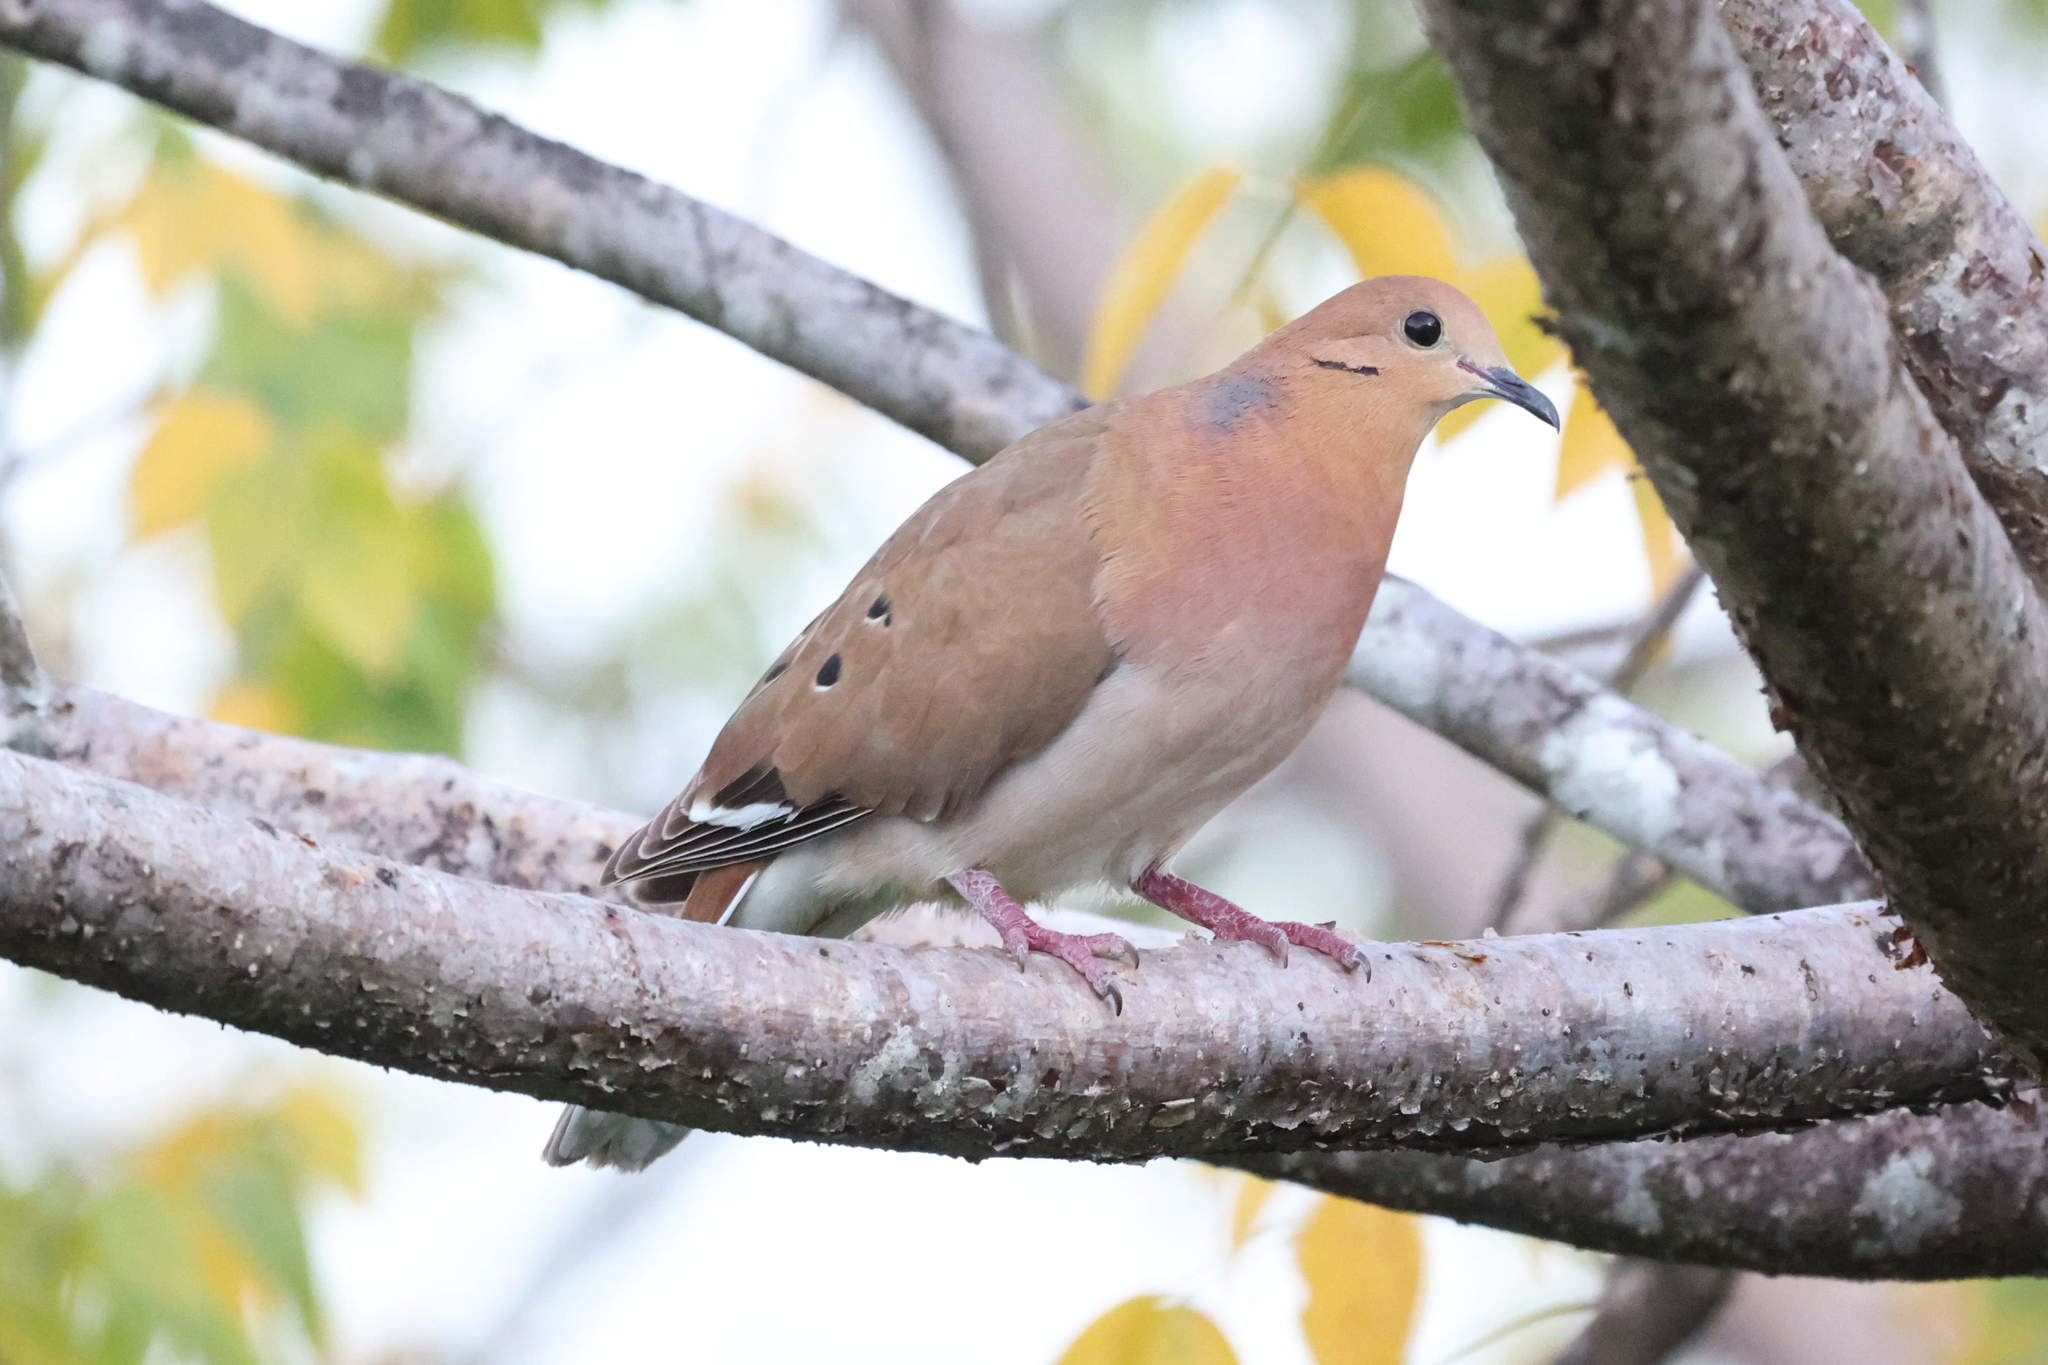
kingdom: Animalia
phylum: Chordata
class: Aves
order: Columbiformes
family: Columbidae
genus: Zenaida
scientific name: Zenaida aurita
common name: Zenaida dove
